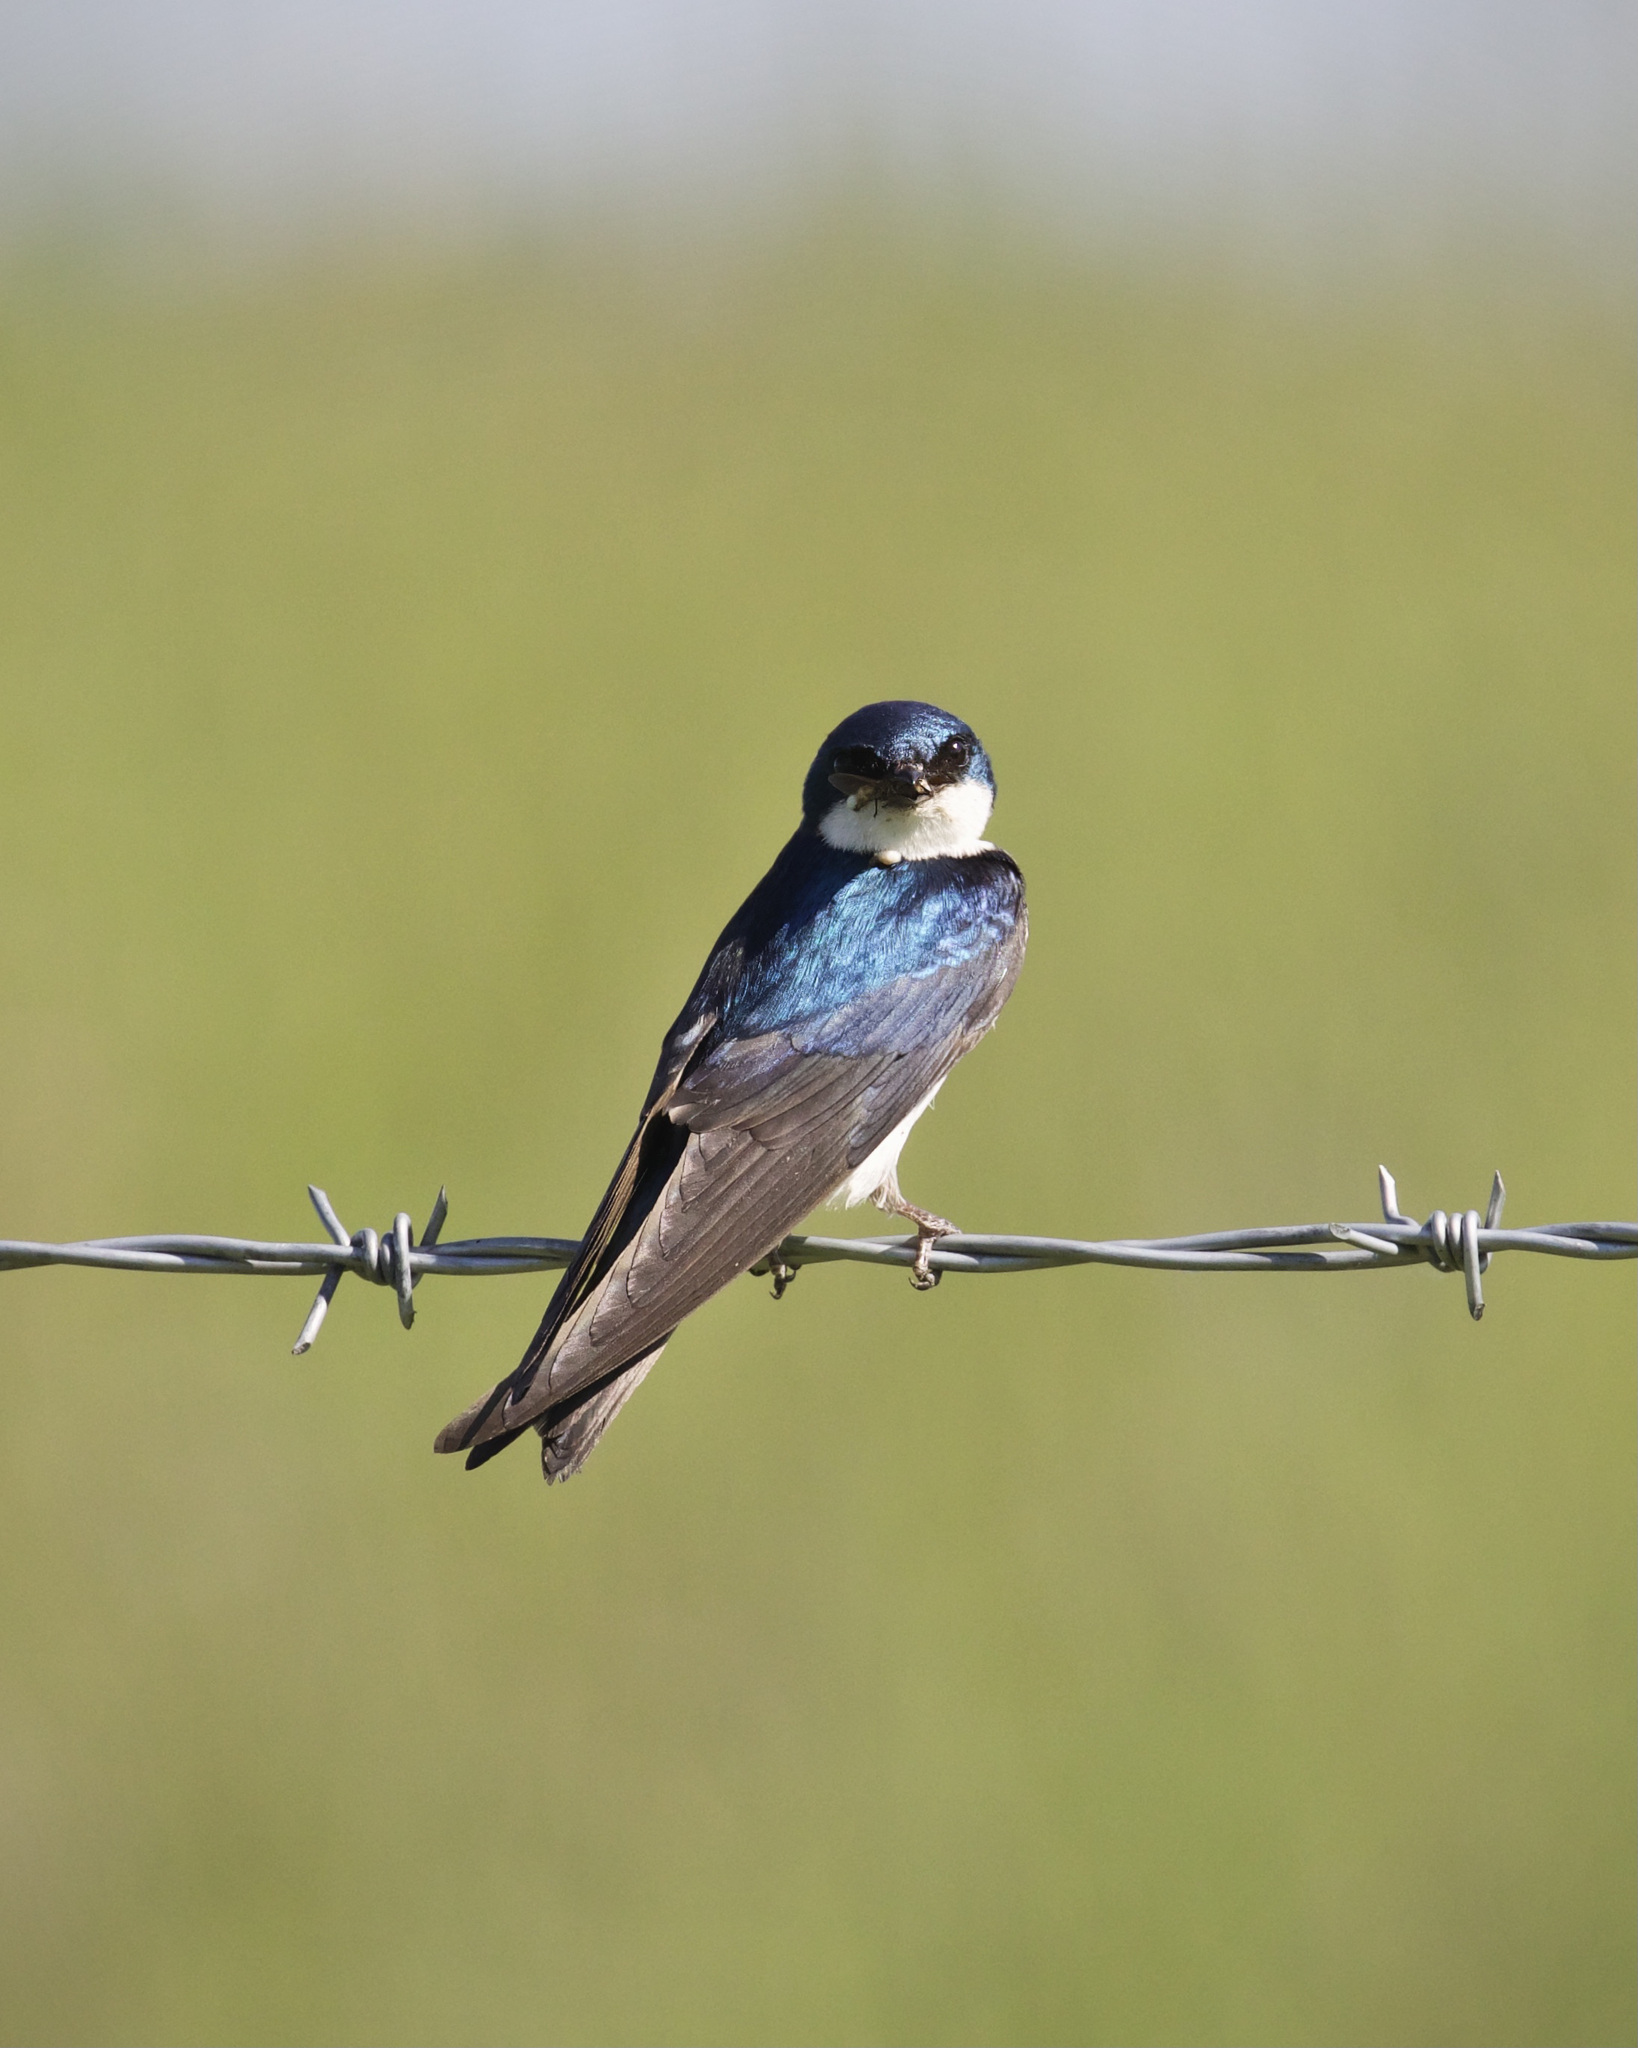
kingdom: Animalia
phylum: Chordata
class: Aves
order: Passeriformes
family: Hirundinidae
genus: Tachycineta
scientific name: Tachycineta bicolor
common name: Tree swallow
